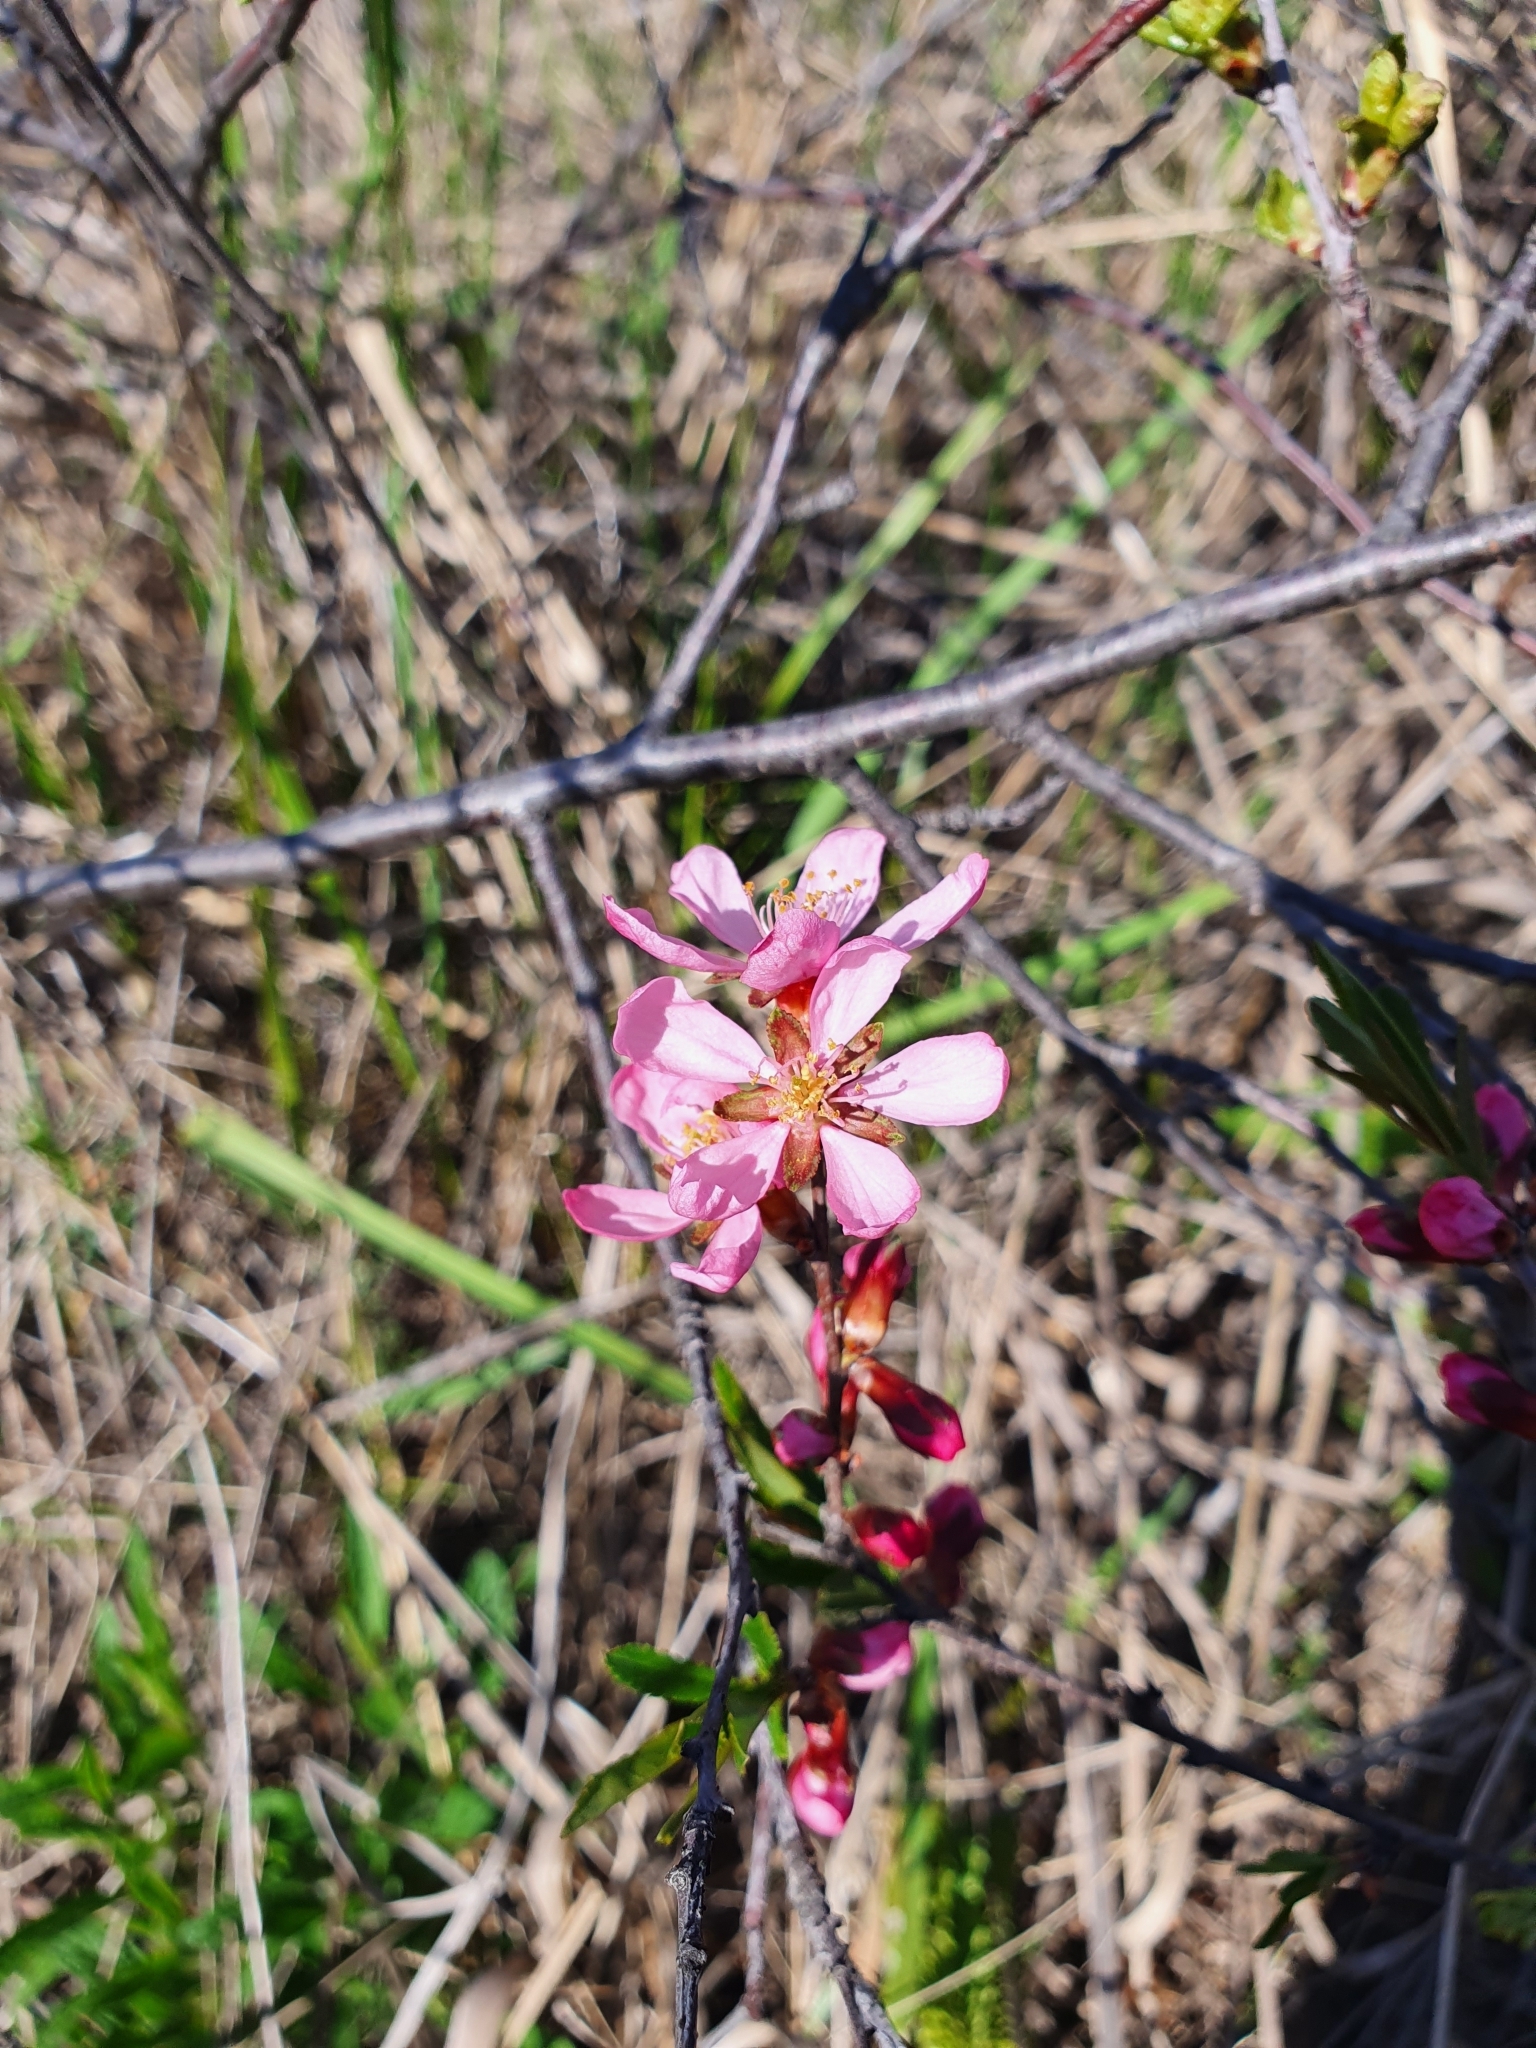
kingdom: Plantae
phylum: Tracheophyta
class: Magnoliopsida
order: Rosales
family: Rosaceae
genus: Prunus
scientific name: Prunus tenella
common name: Dwarf russian almond
